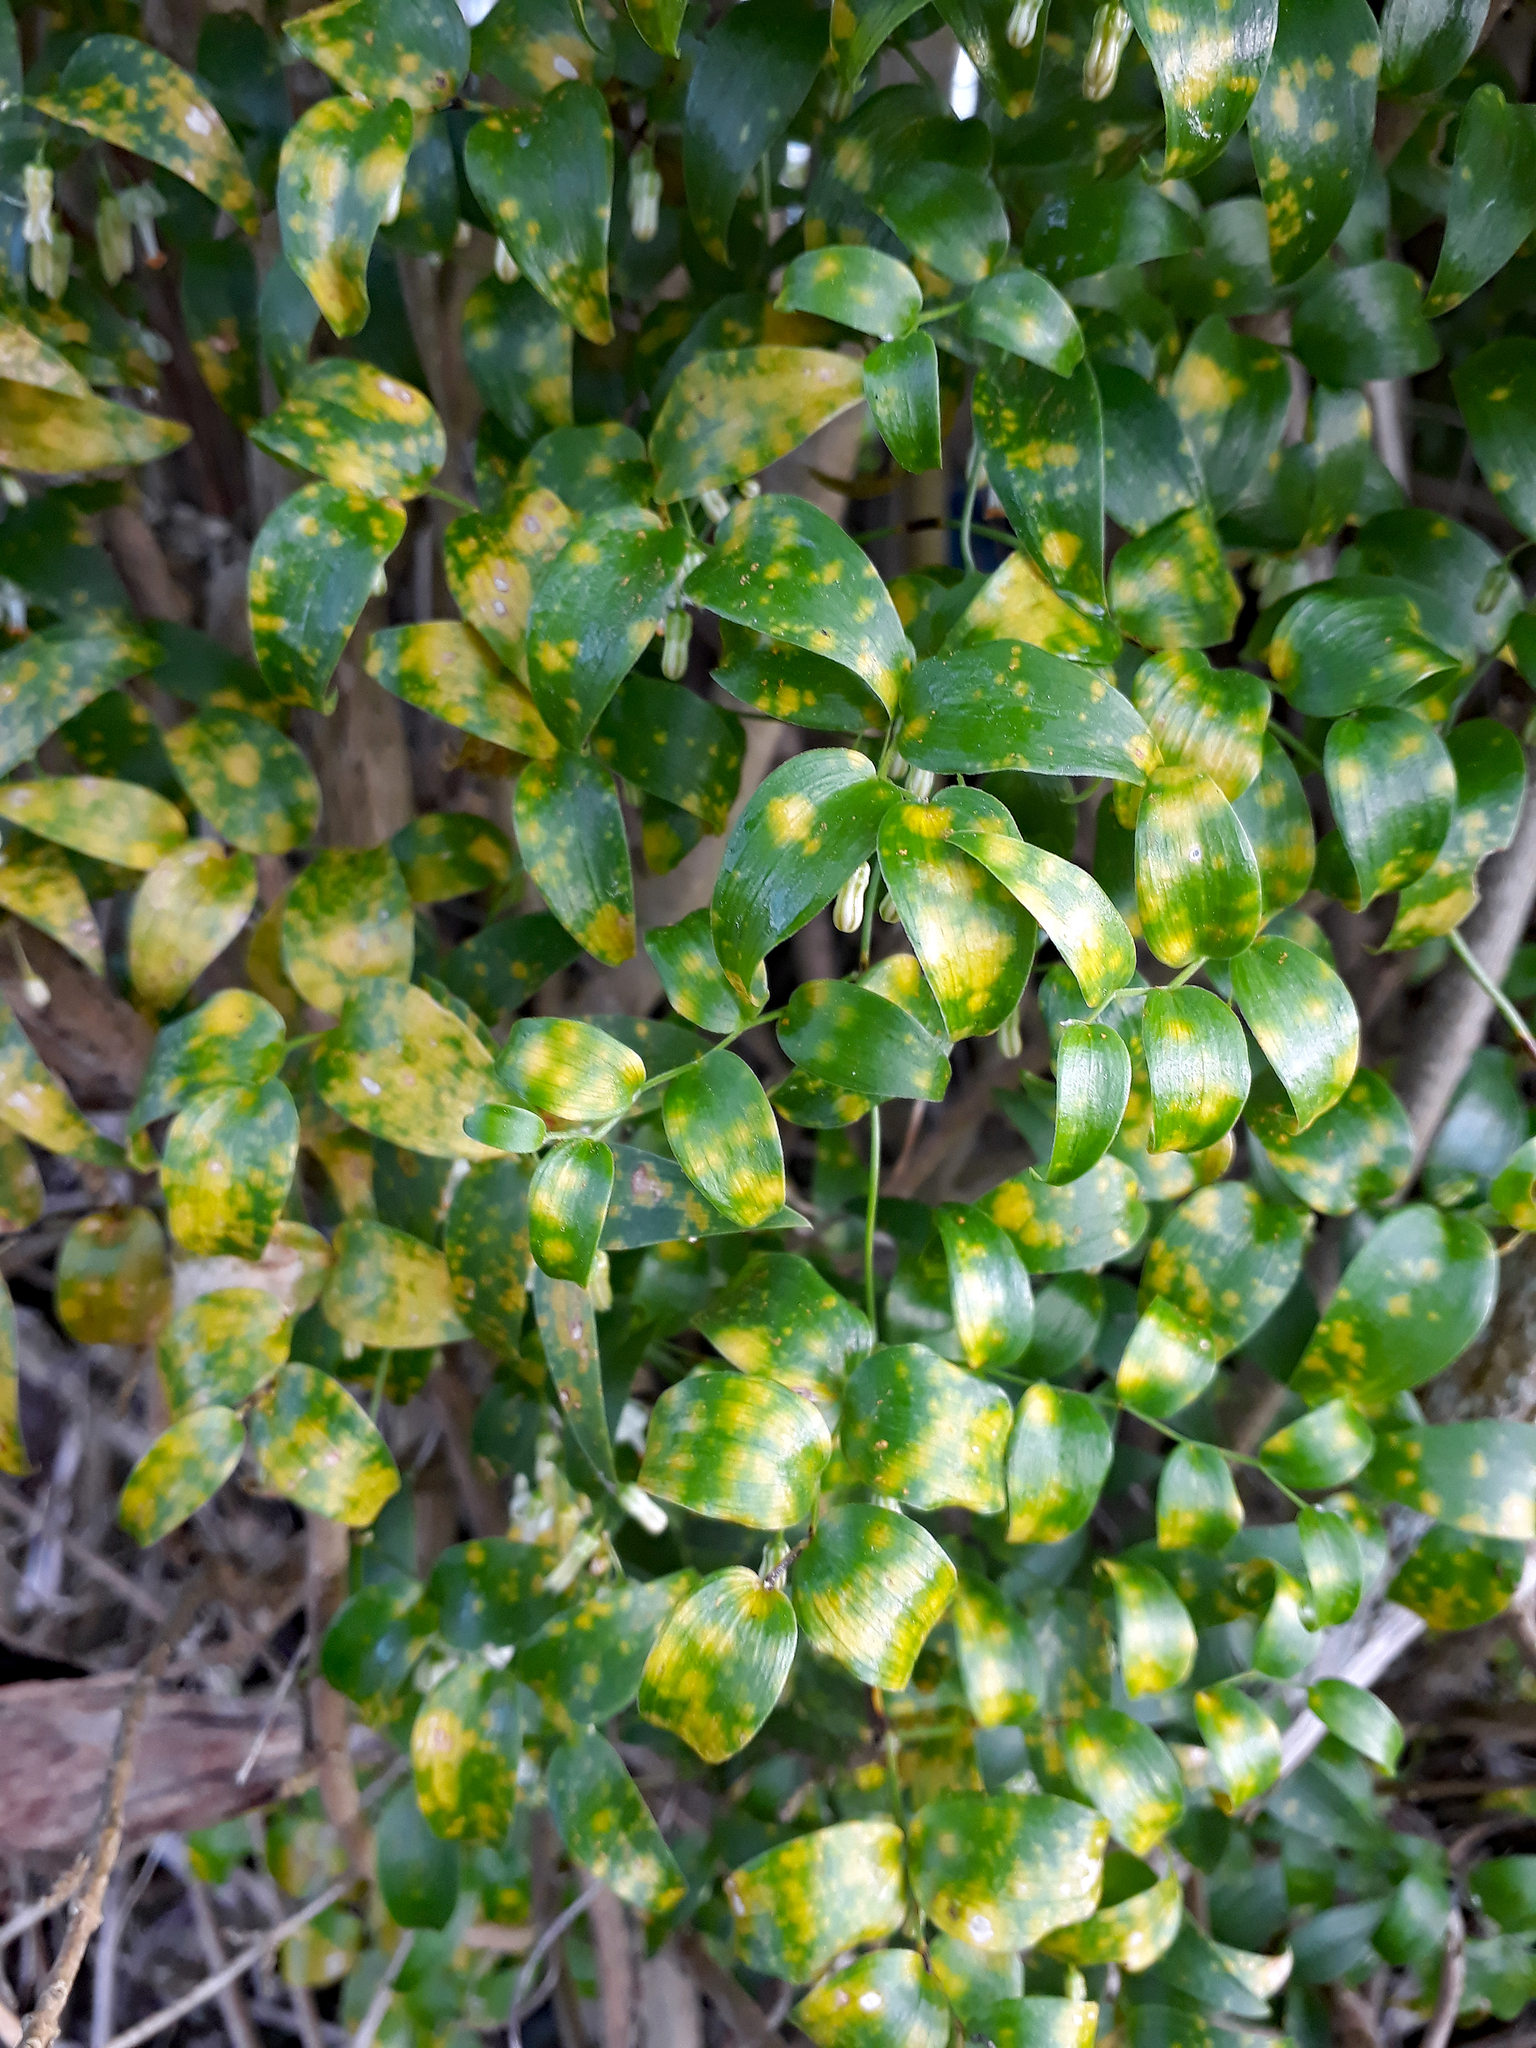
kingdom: Fungi
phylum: Basidiomycota
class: Pucciniomycetes
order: Pucciniales
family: Pucciniaceae
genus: Puccinia
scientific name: Puccinia myrsiphylli
